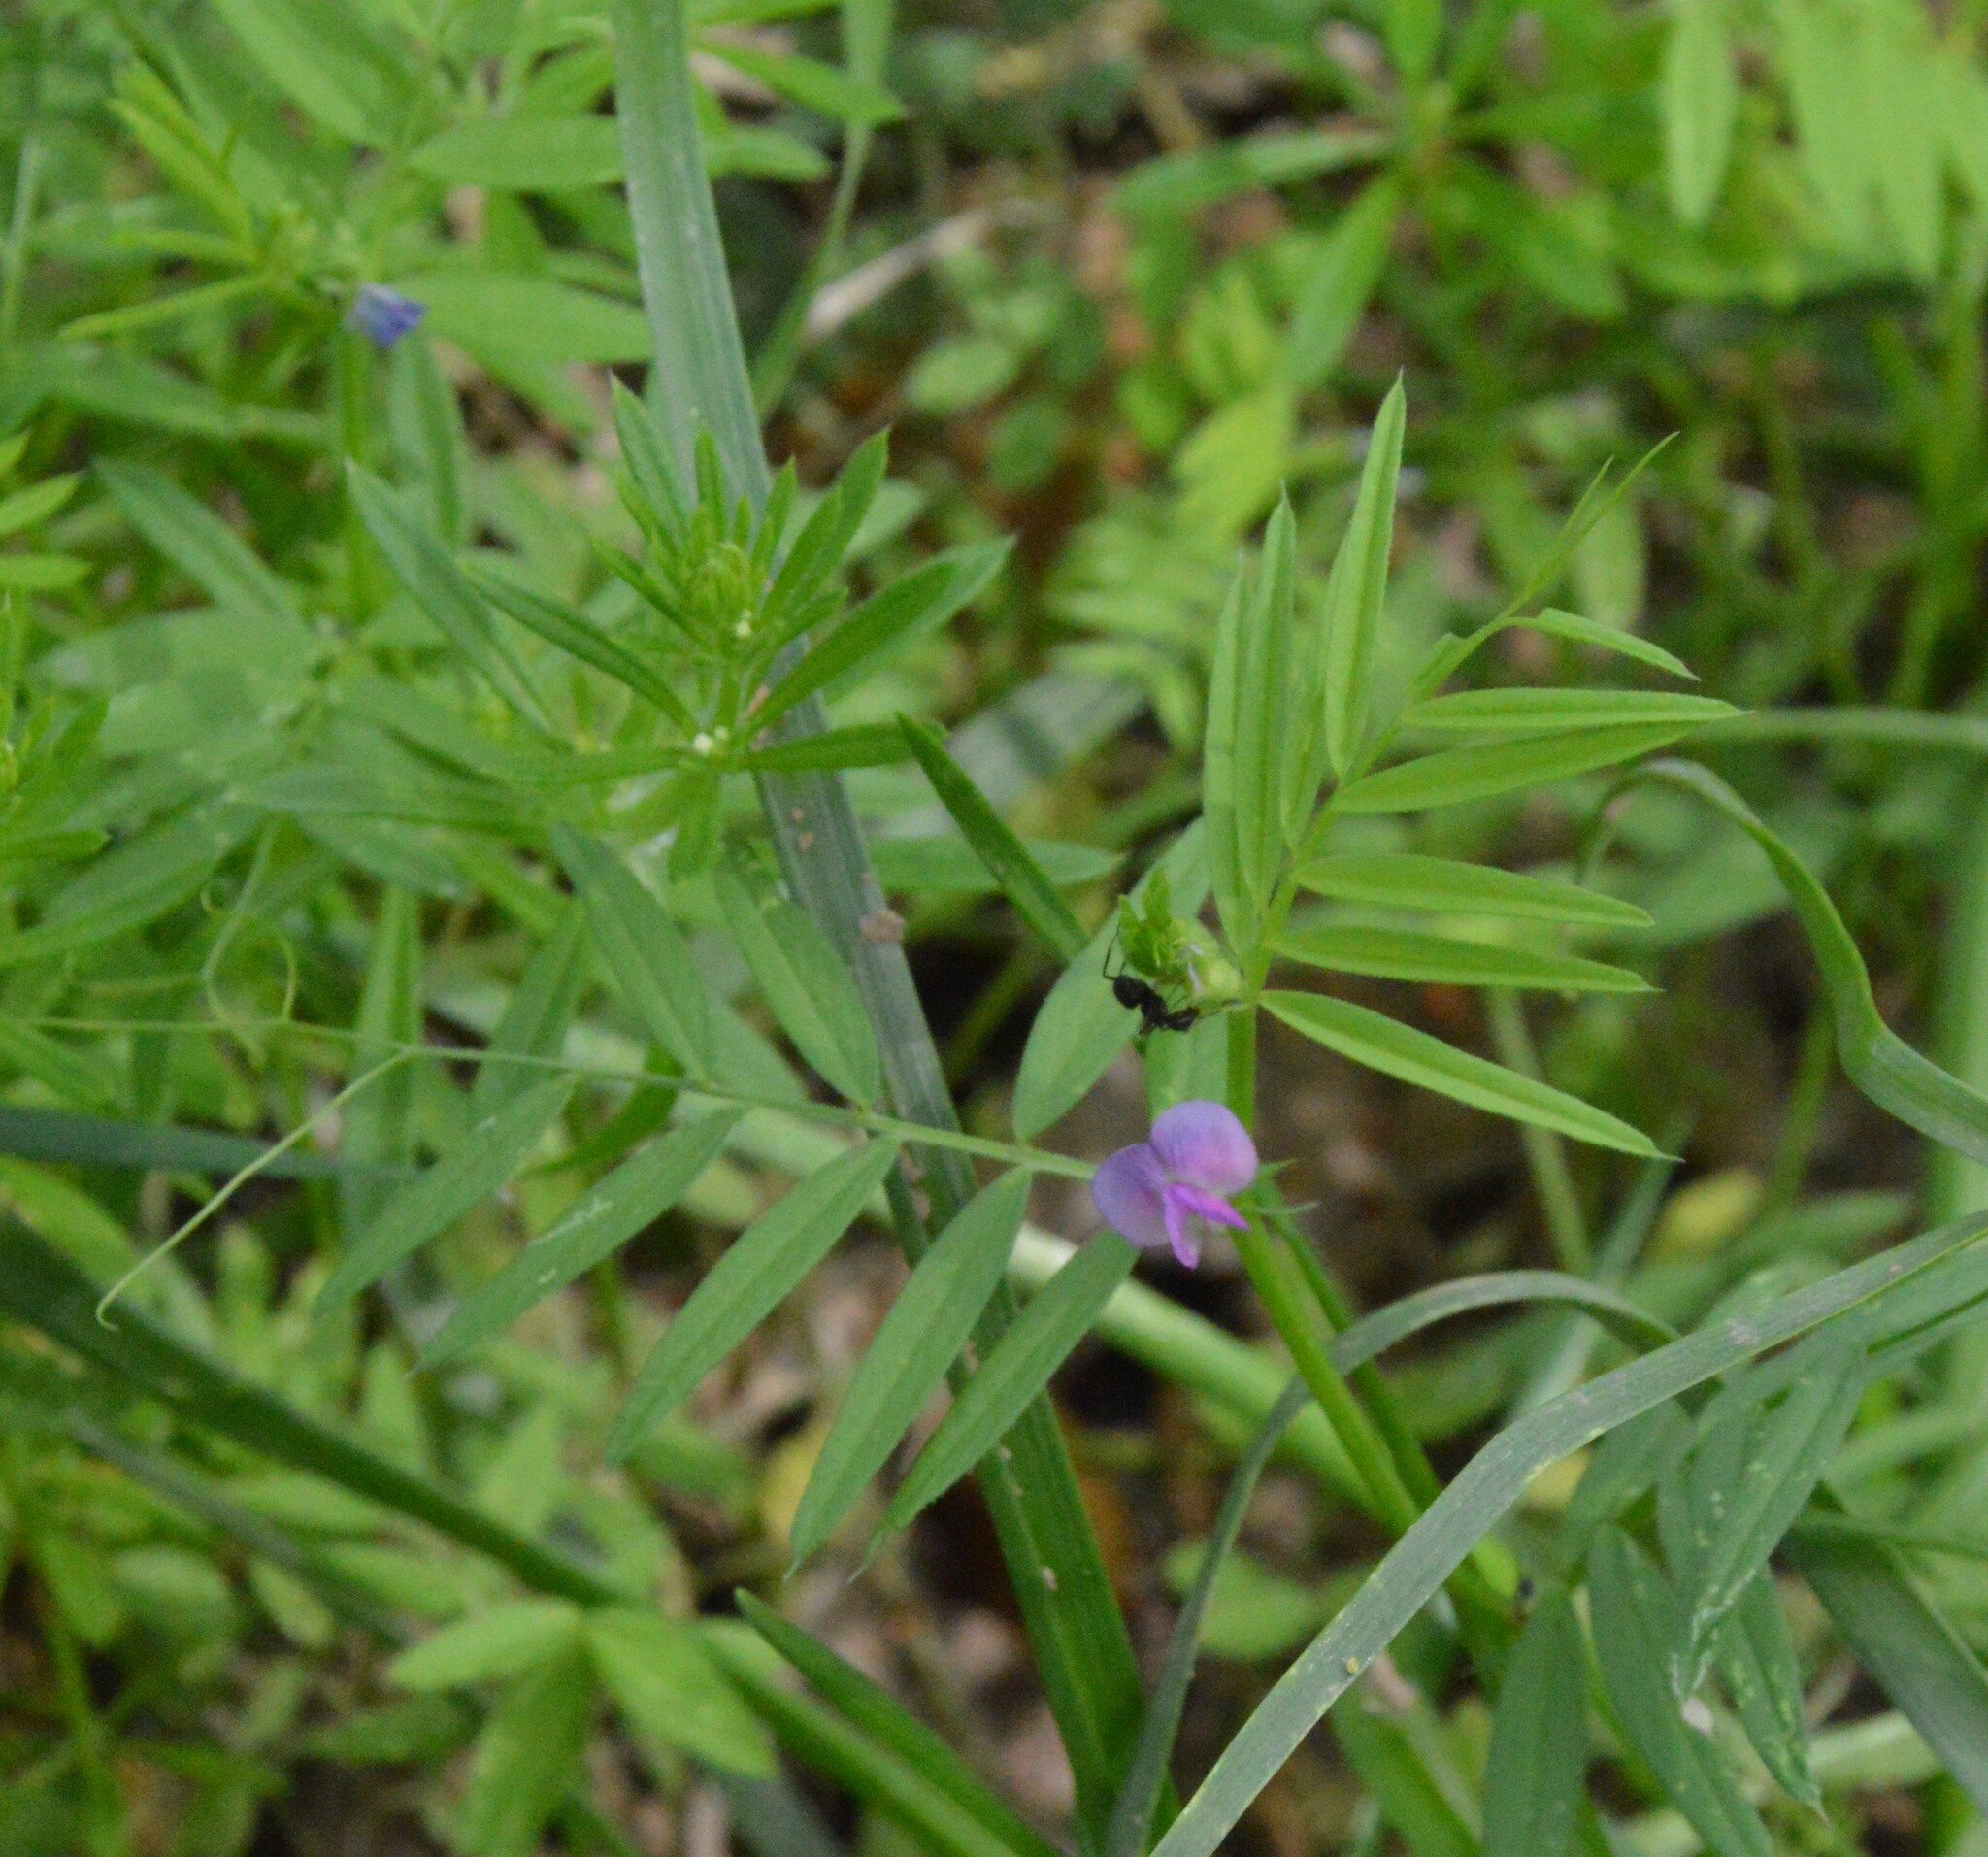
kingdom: Plantae
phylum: Tracheophyta
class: Magnoliopsida
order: Fabales
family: Fabaceae
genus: Vicia
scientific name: Vicia sativa
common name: Garden vetch
